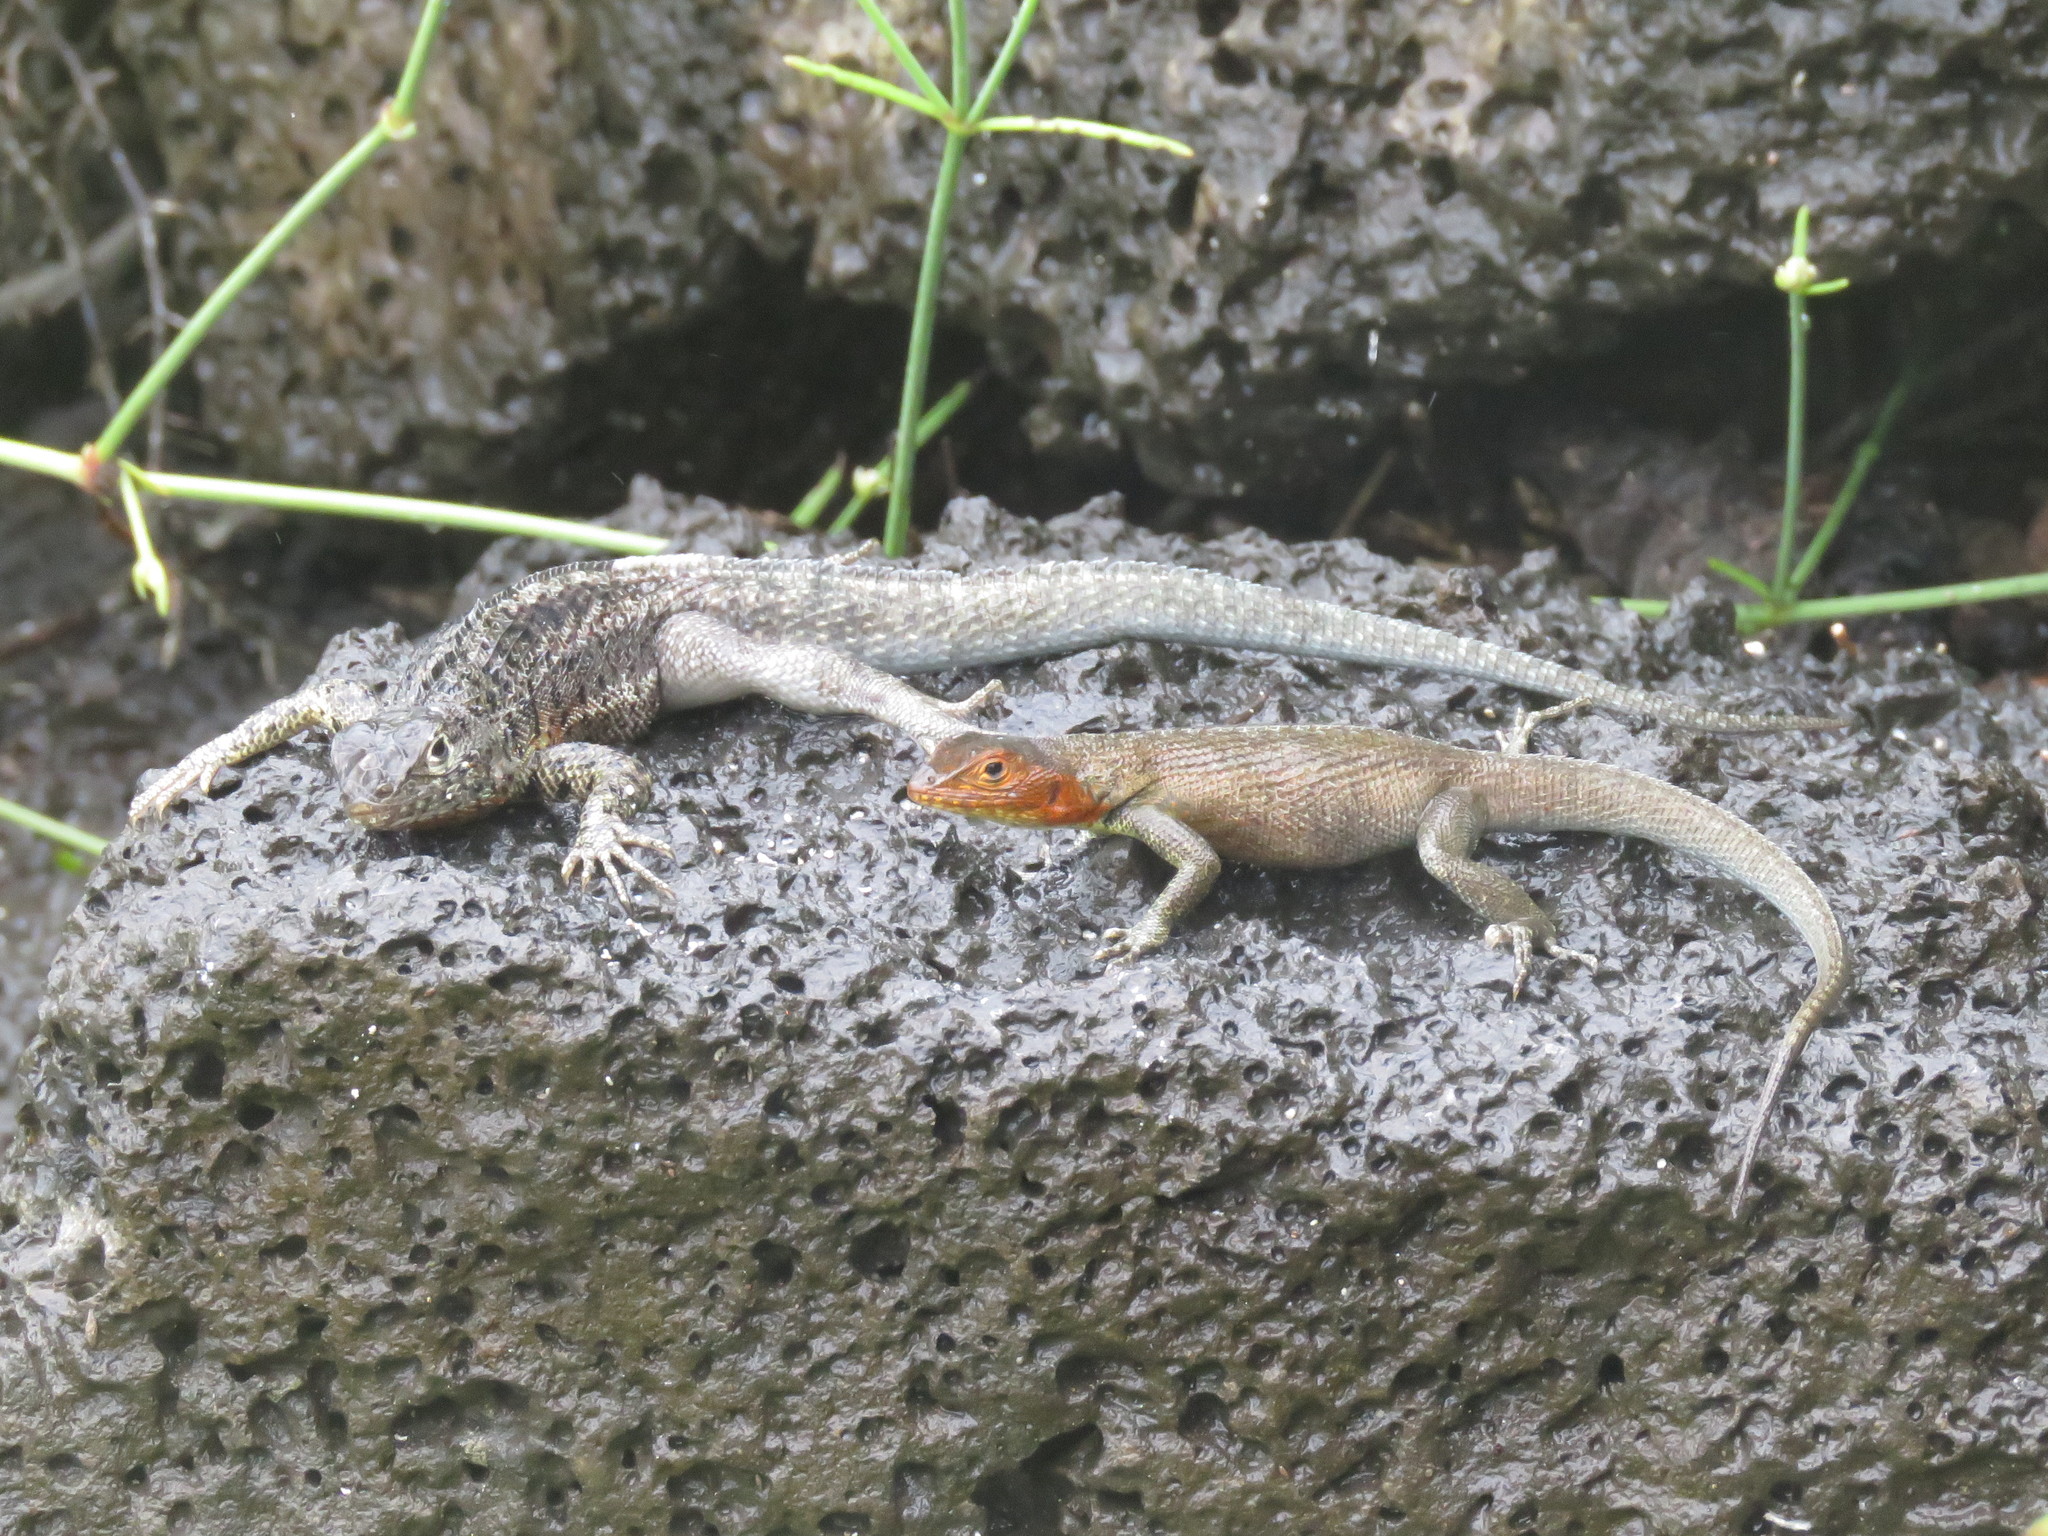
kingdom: Animalia
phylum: Chordata
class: Squamata
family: Tropiduridae
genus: Microlophus
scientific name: Microlophus indefatigabilis
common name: Galapagos lava lizard
